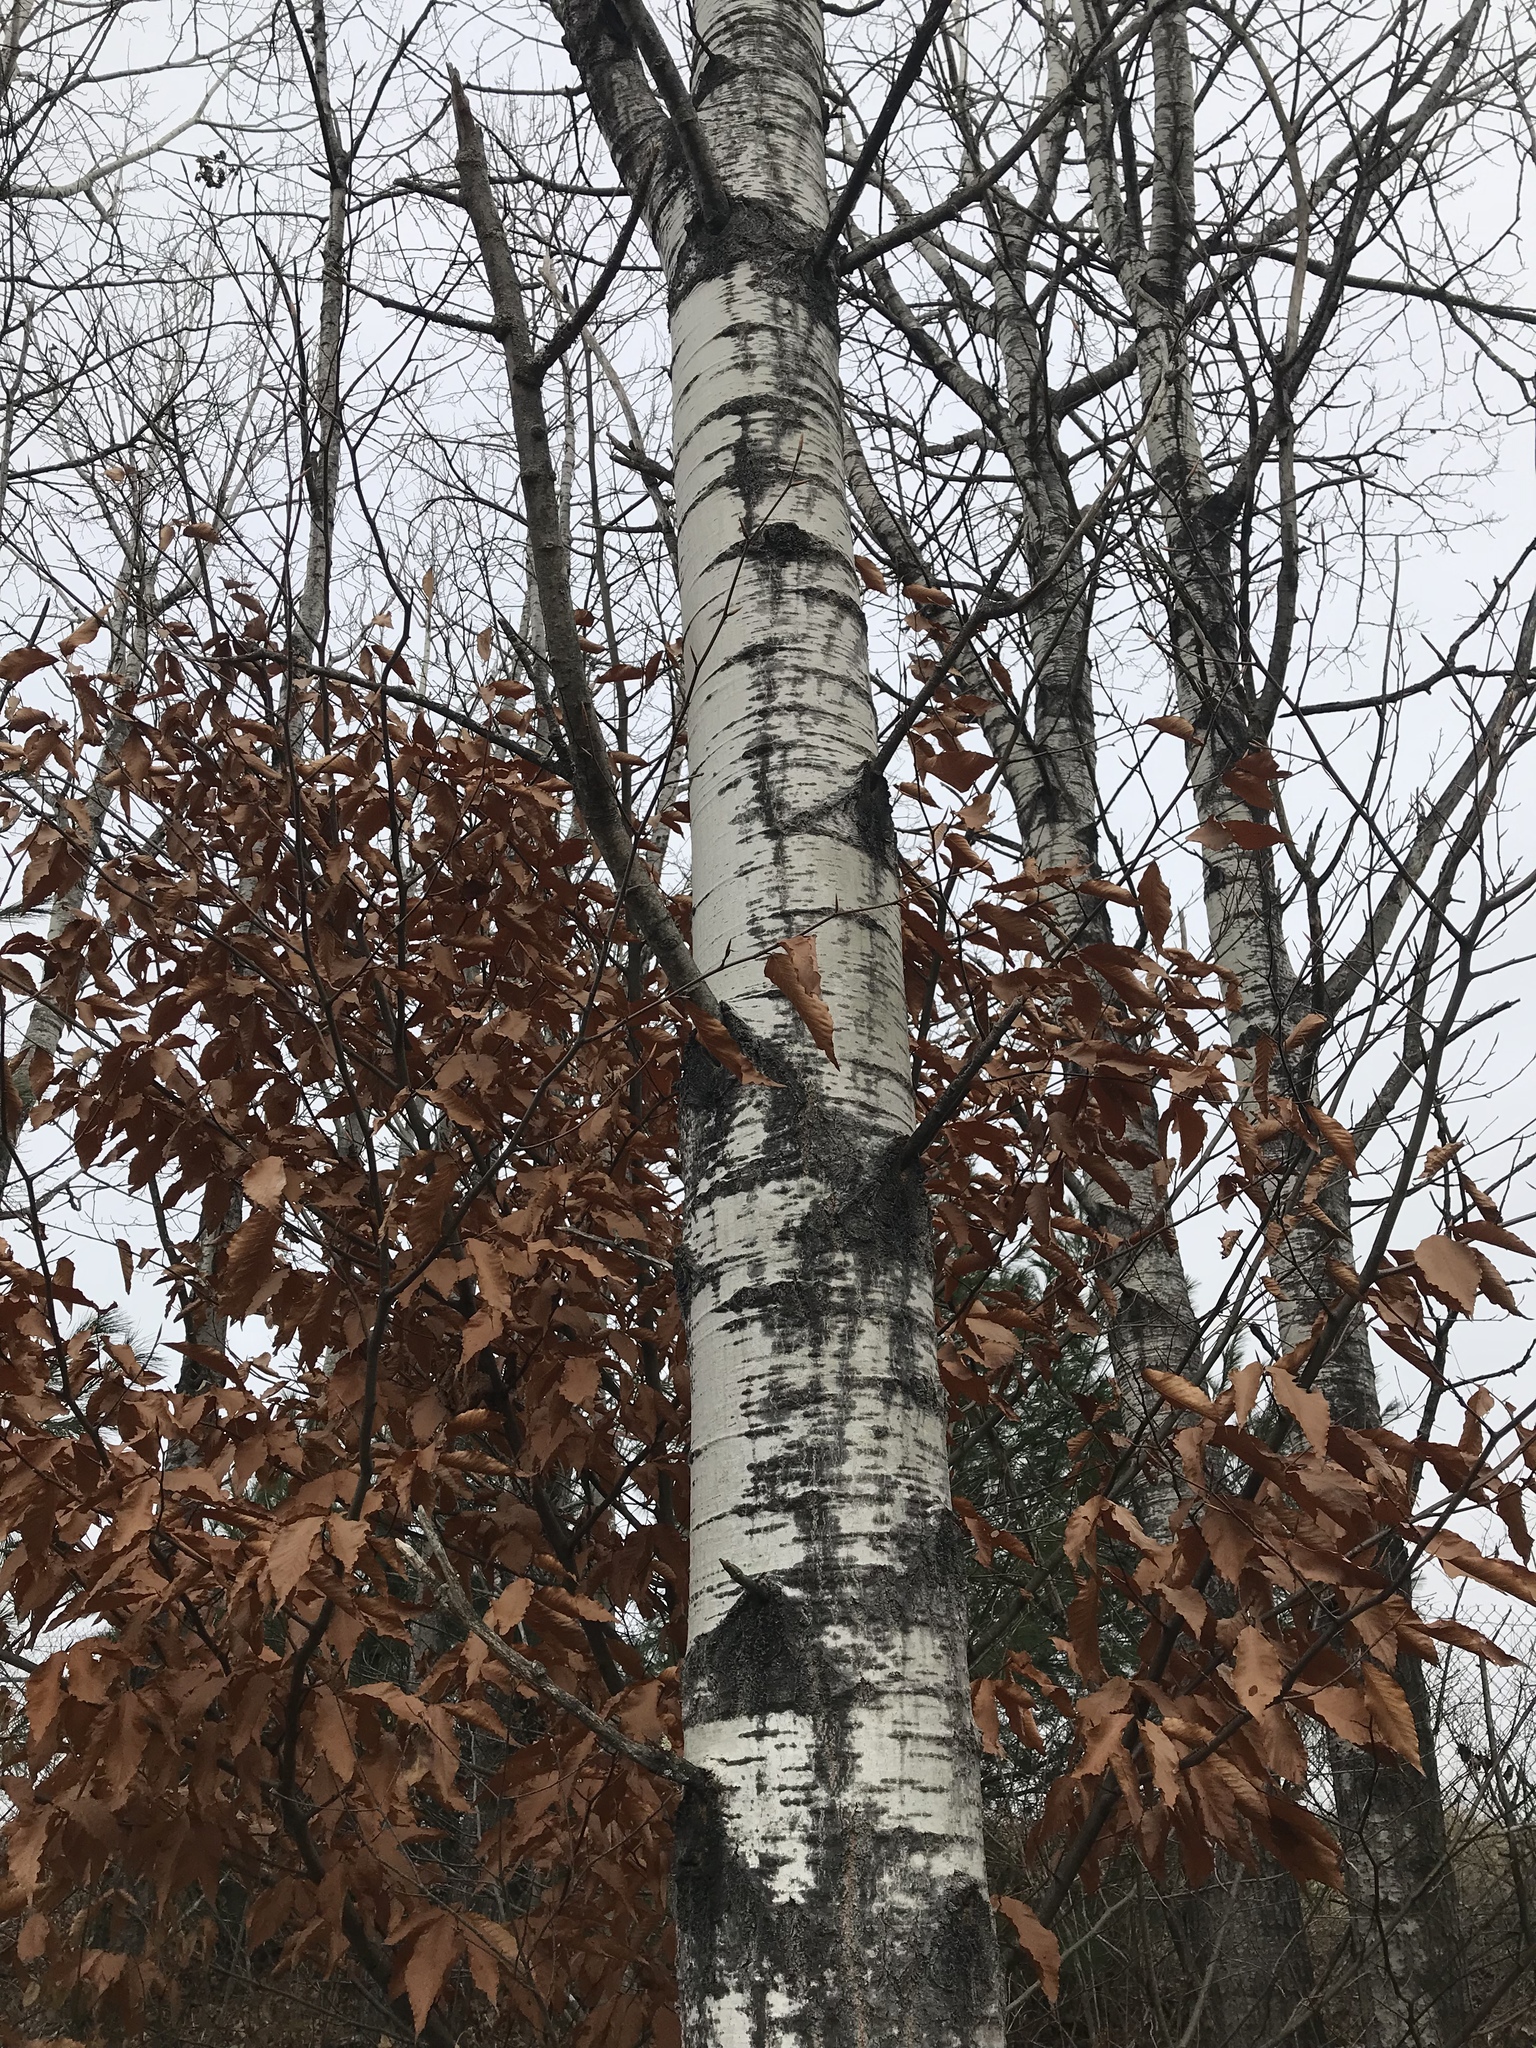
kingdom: Plantae
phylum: Tracheophyta
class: Magnoliopsida
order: Malpighiales
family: Salicaceae
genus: Populus
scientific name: Populus tremuloides
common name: Quaking aspen
